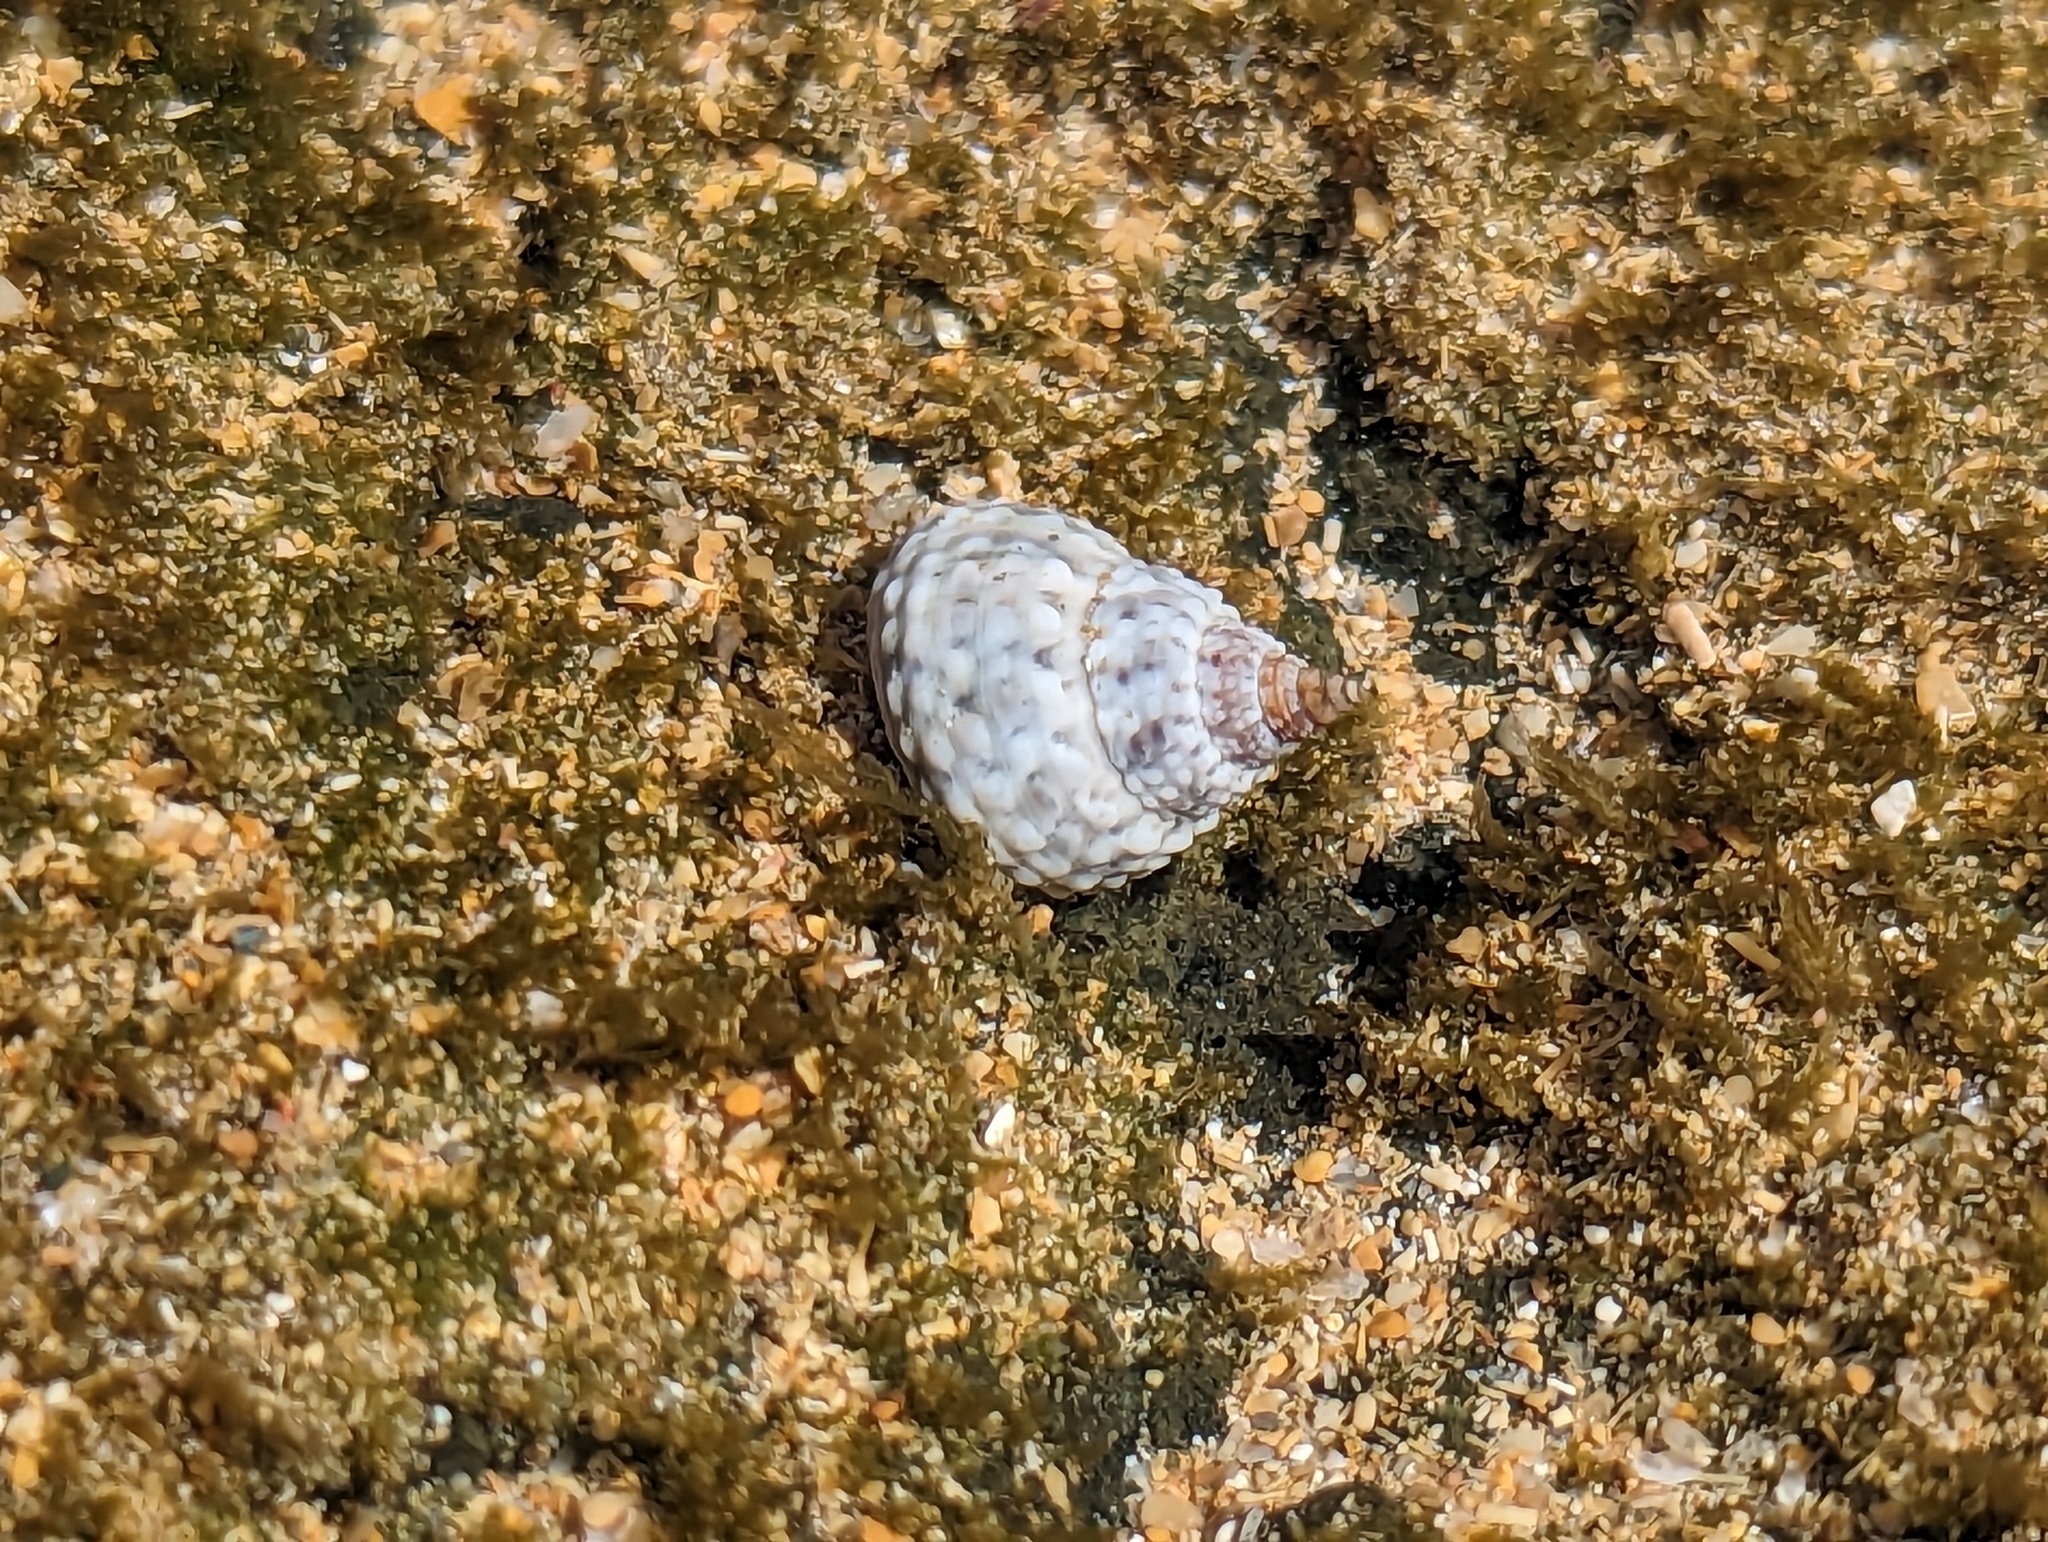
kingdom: Animalia
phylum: Mollusca
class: Gastropoda
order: Littorinimorpha
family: Littorinidae
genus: Cenchritis
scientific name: Cenchritis muricatus
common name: Beaded periwinkle
